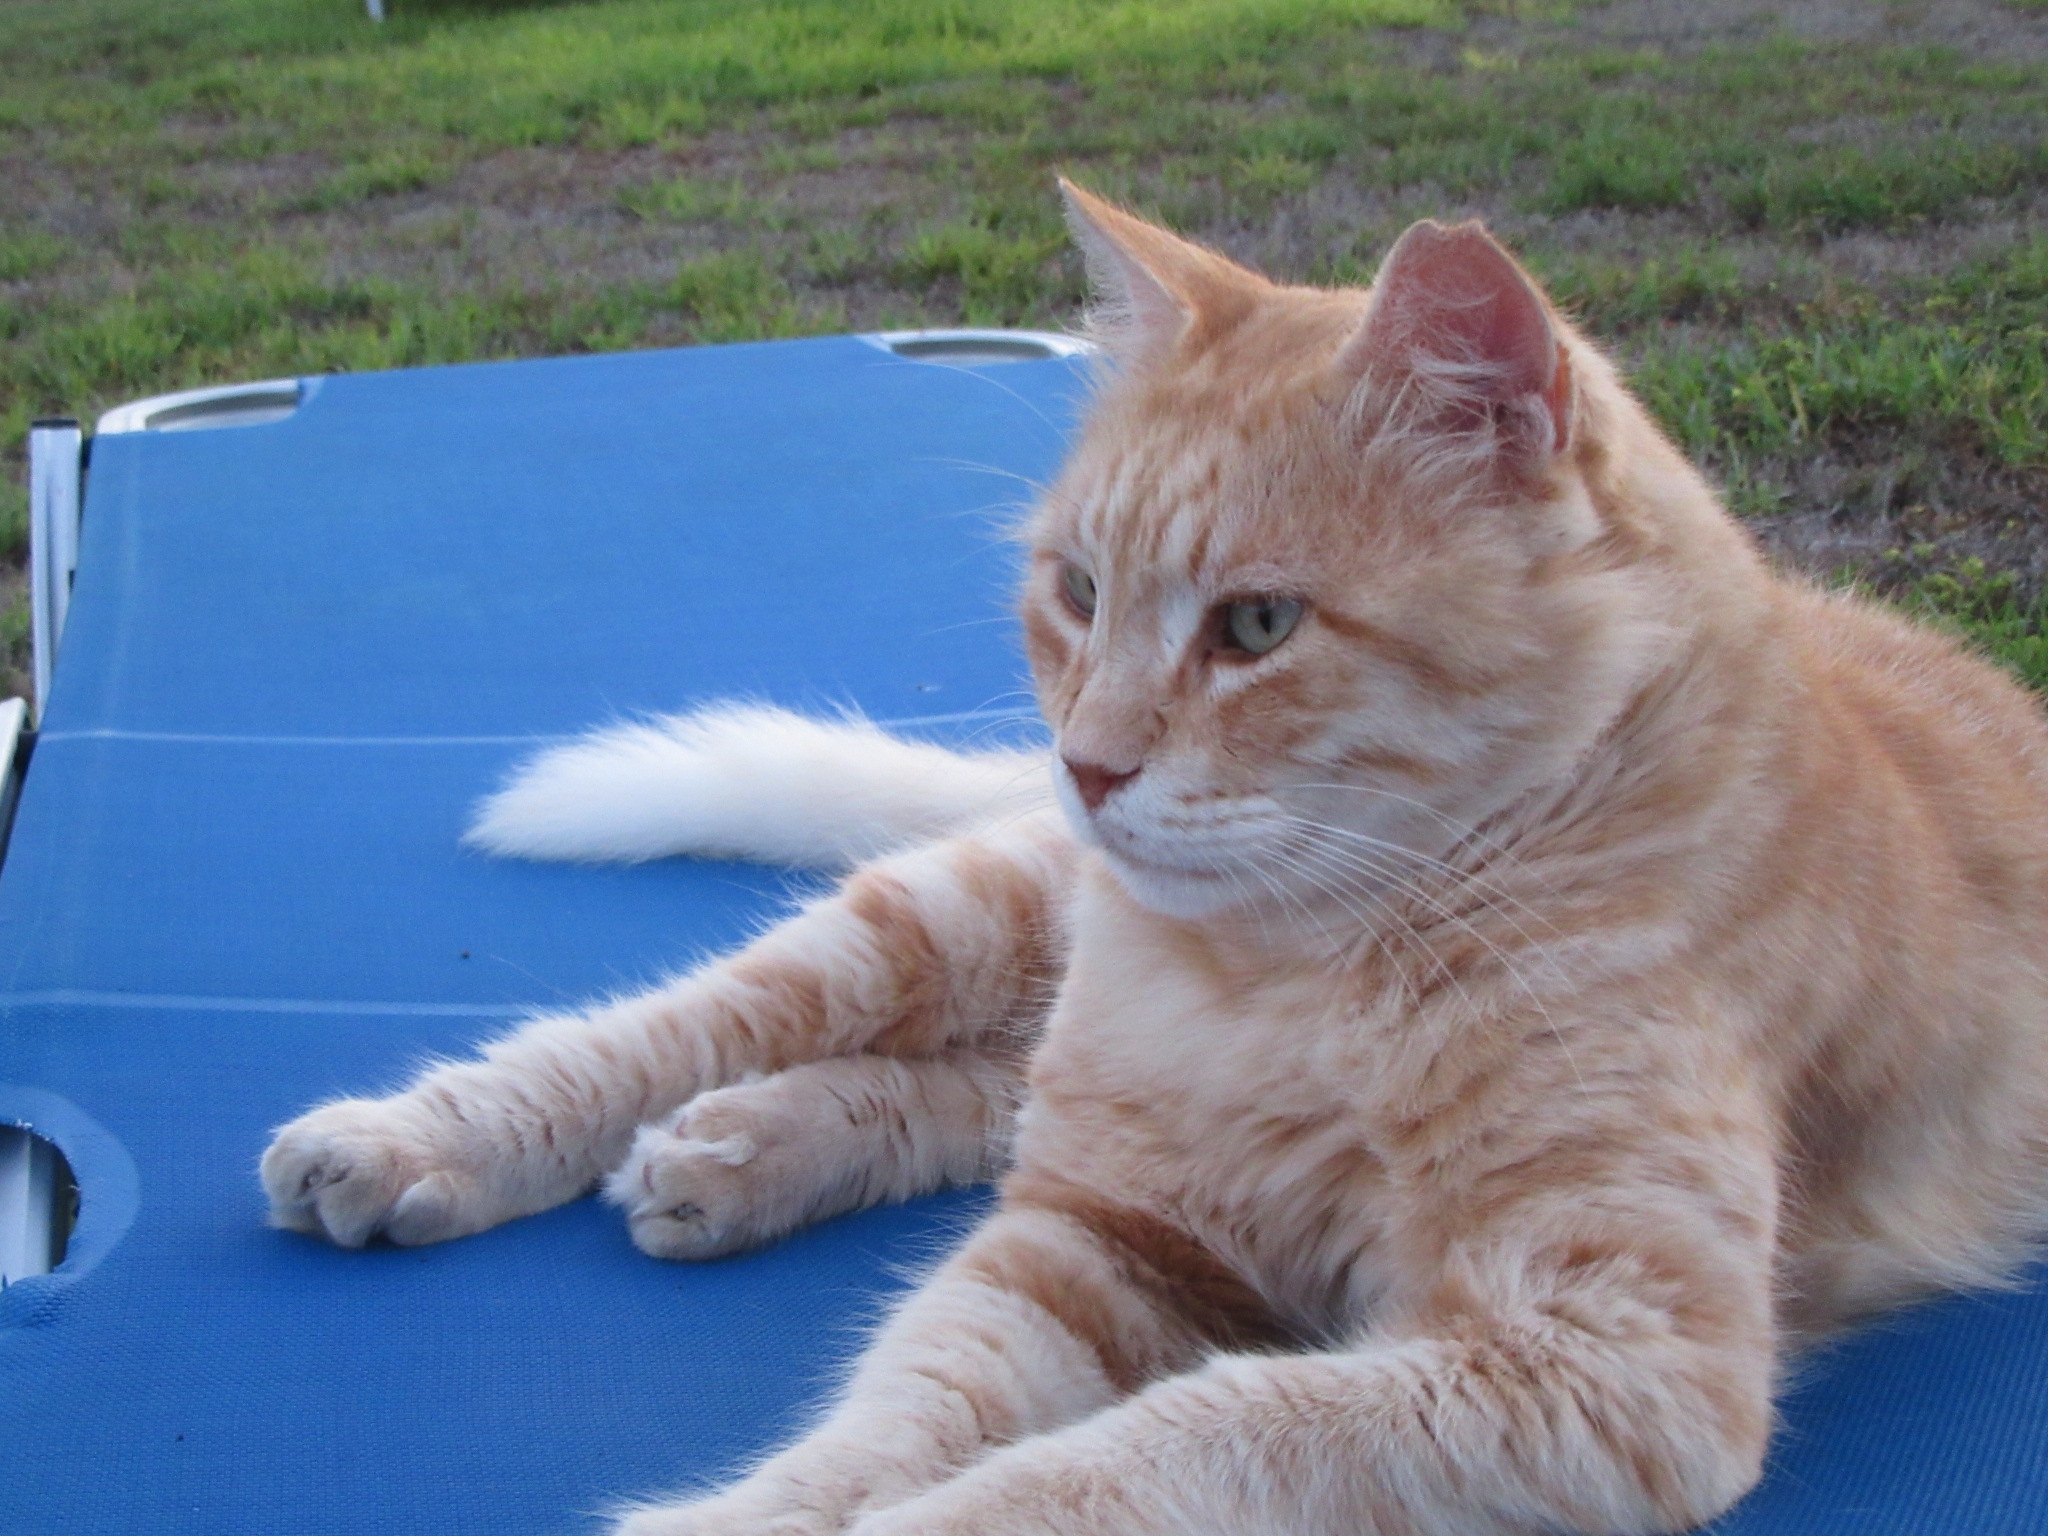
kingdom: Animalia
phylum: Chordata
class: Mammalia
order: Carnivora
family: Felidae
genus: Felis
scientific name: Felis catus
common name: Domestic cat
